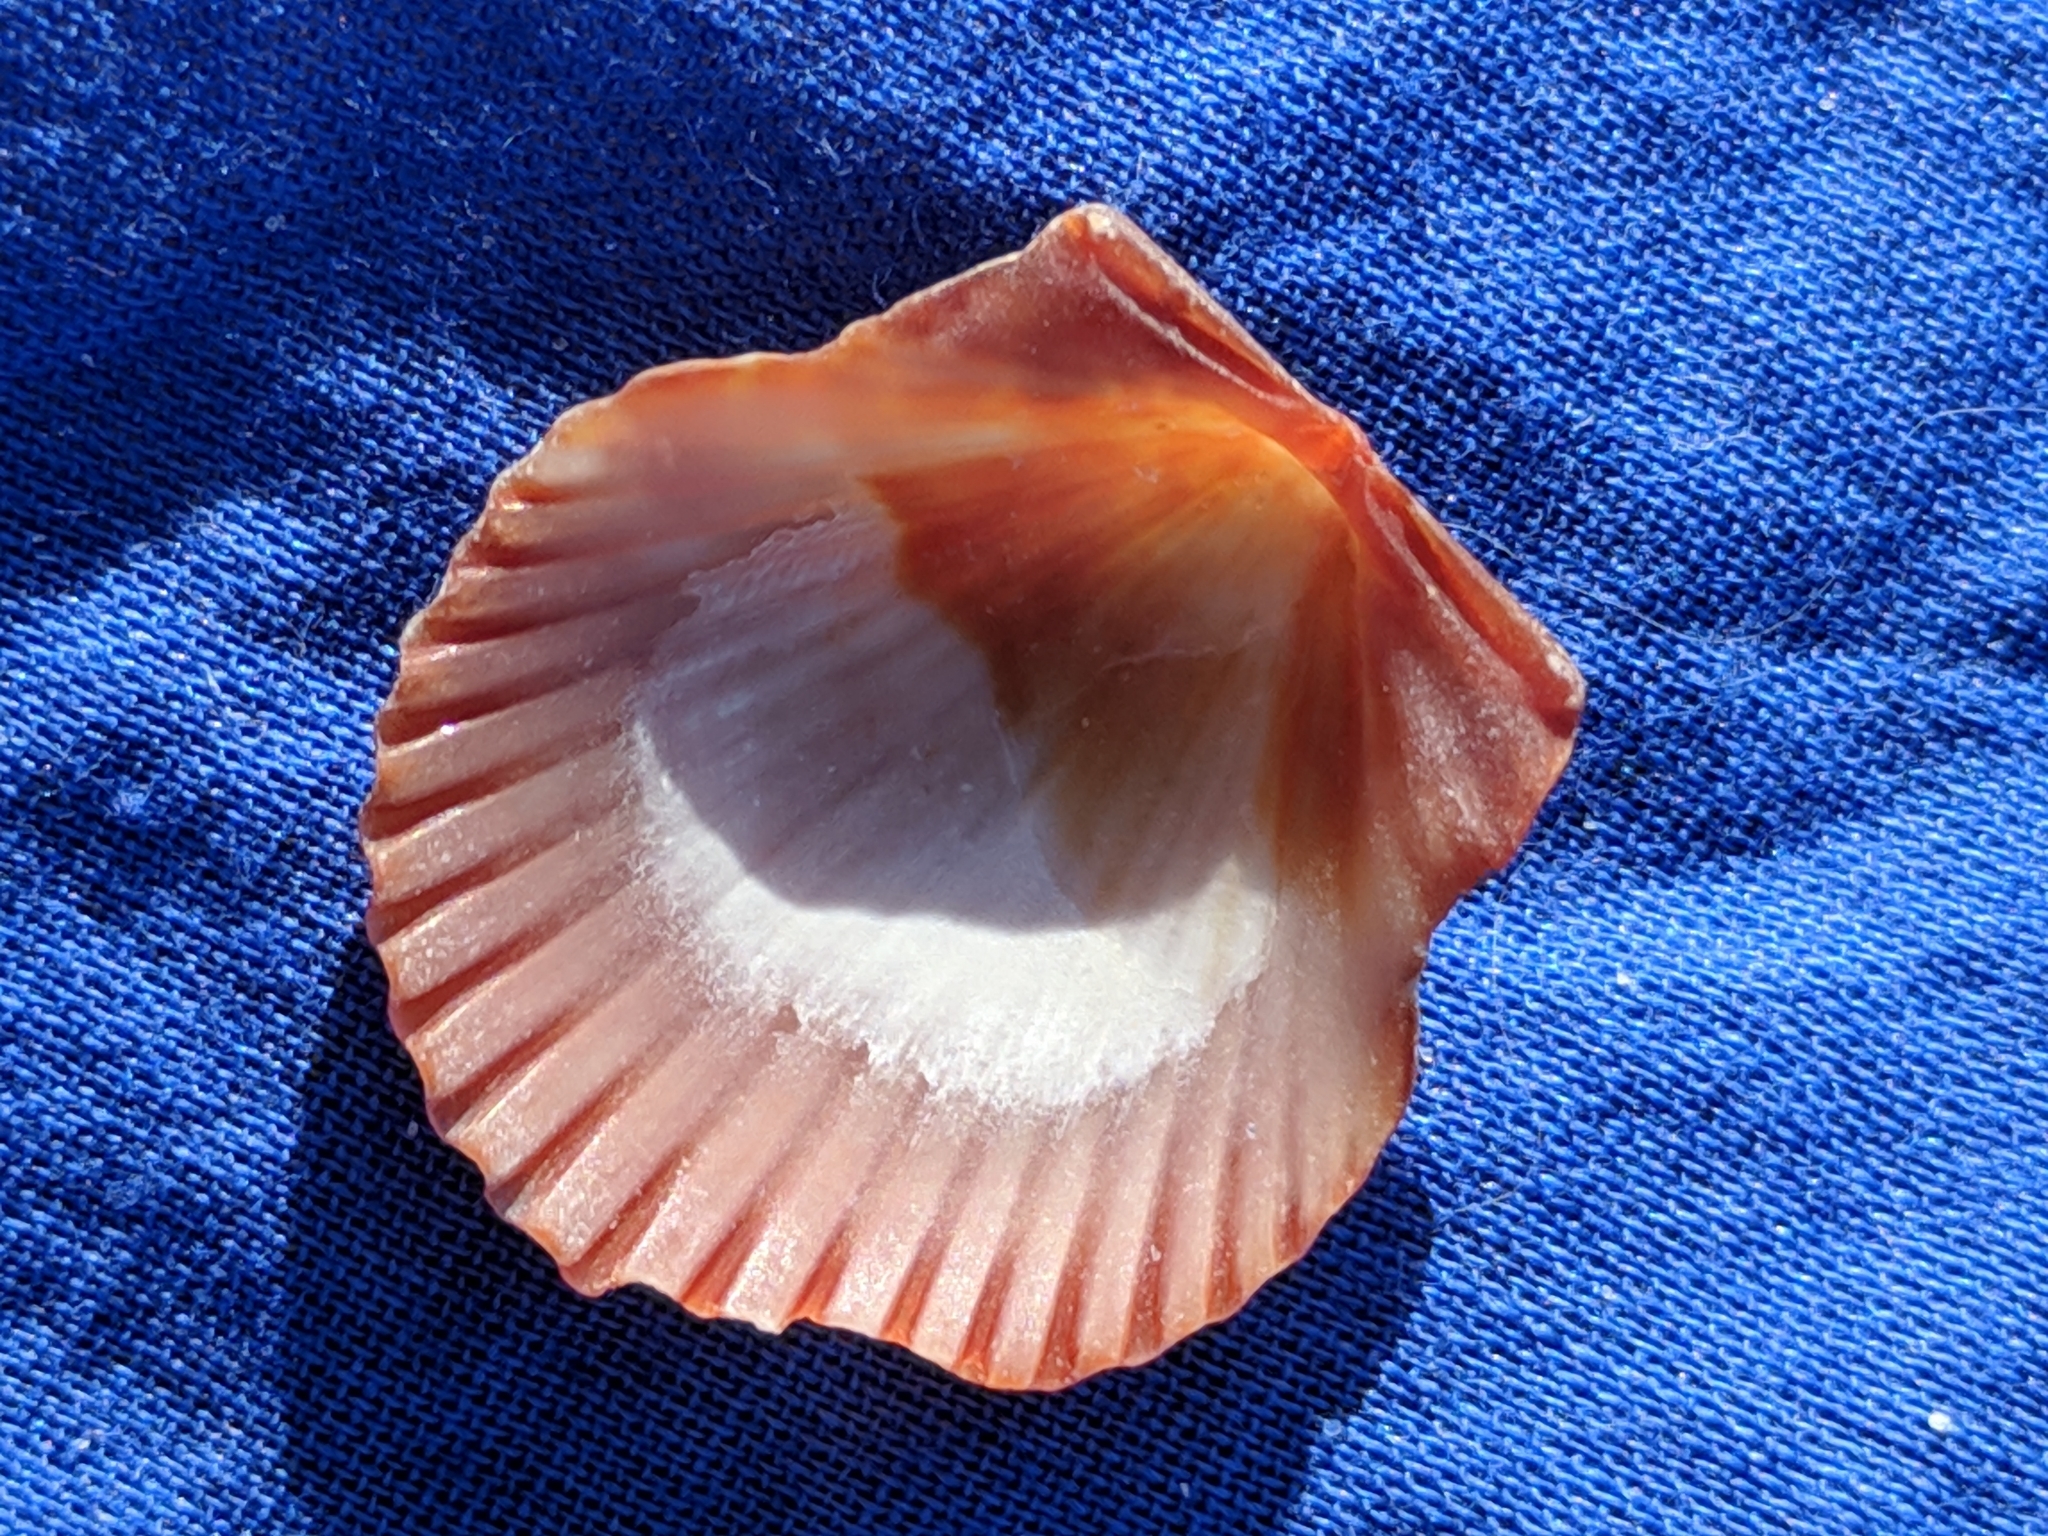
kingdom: Animalia
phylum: Mollusca
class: Bivalvia
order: Pectinida
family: Pectinidae
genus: Argopecten
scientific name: Argopecten irradians
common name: Atlantic bay scallop
